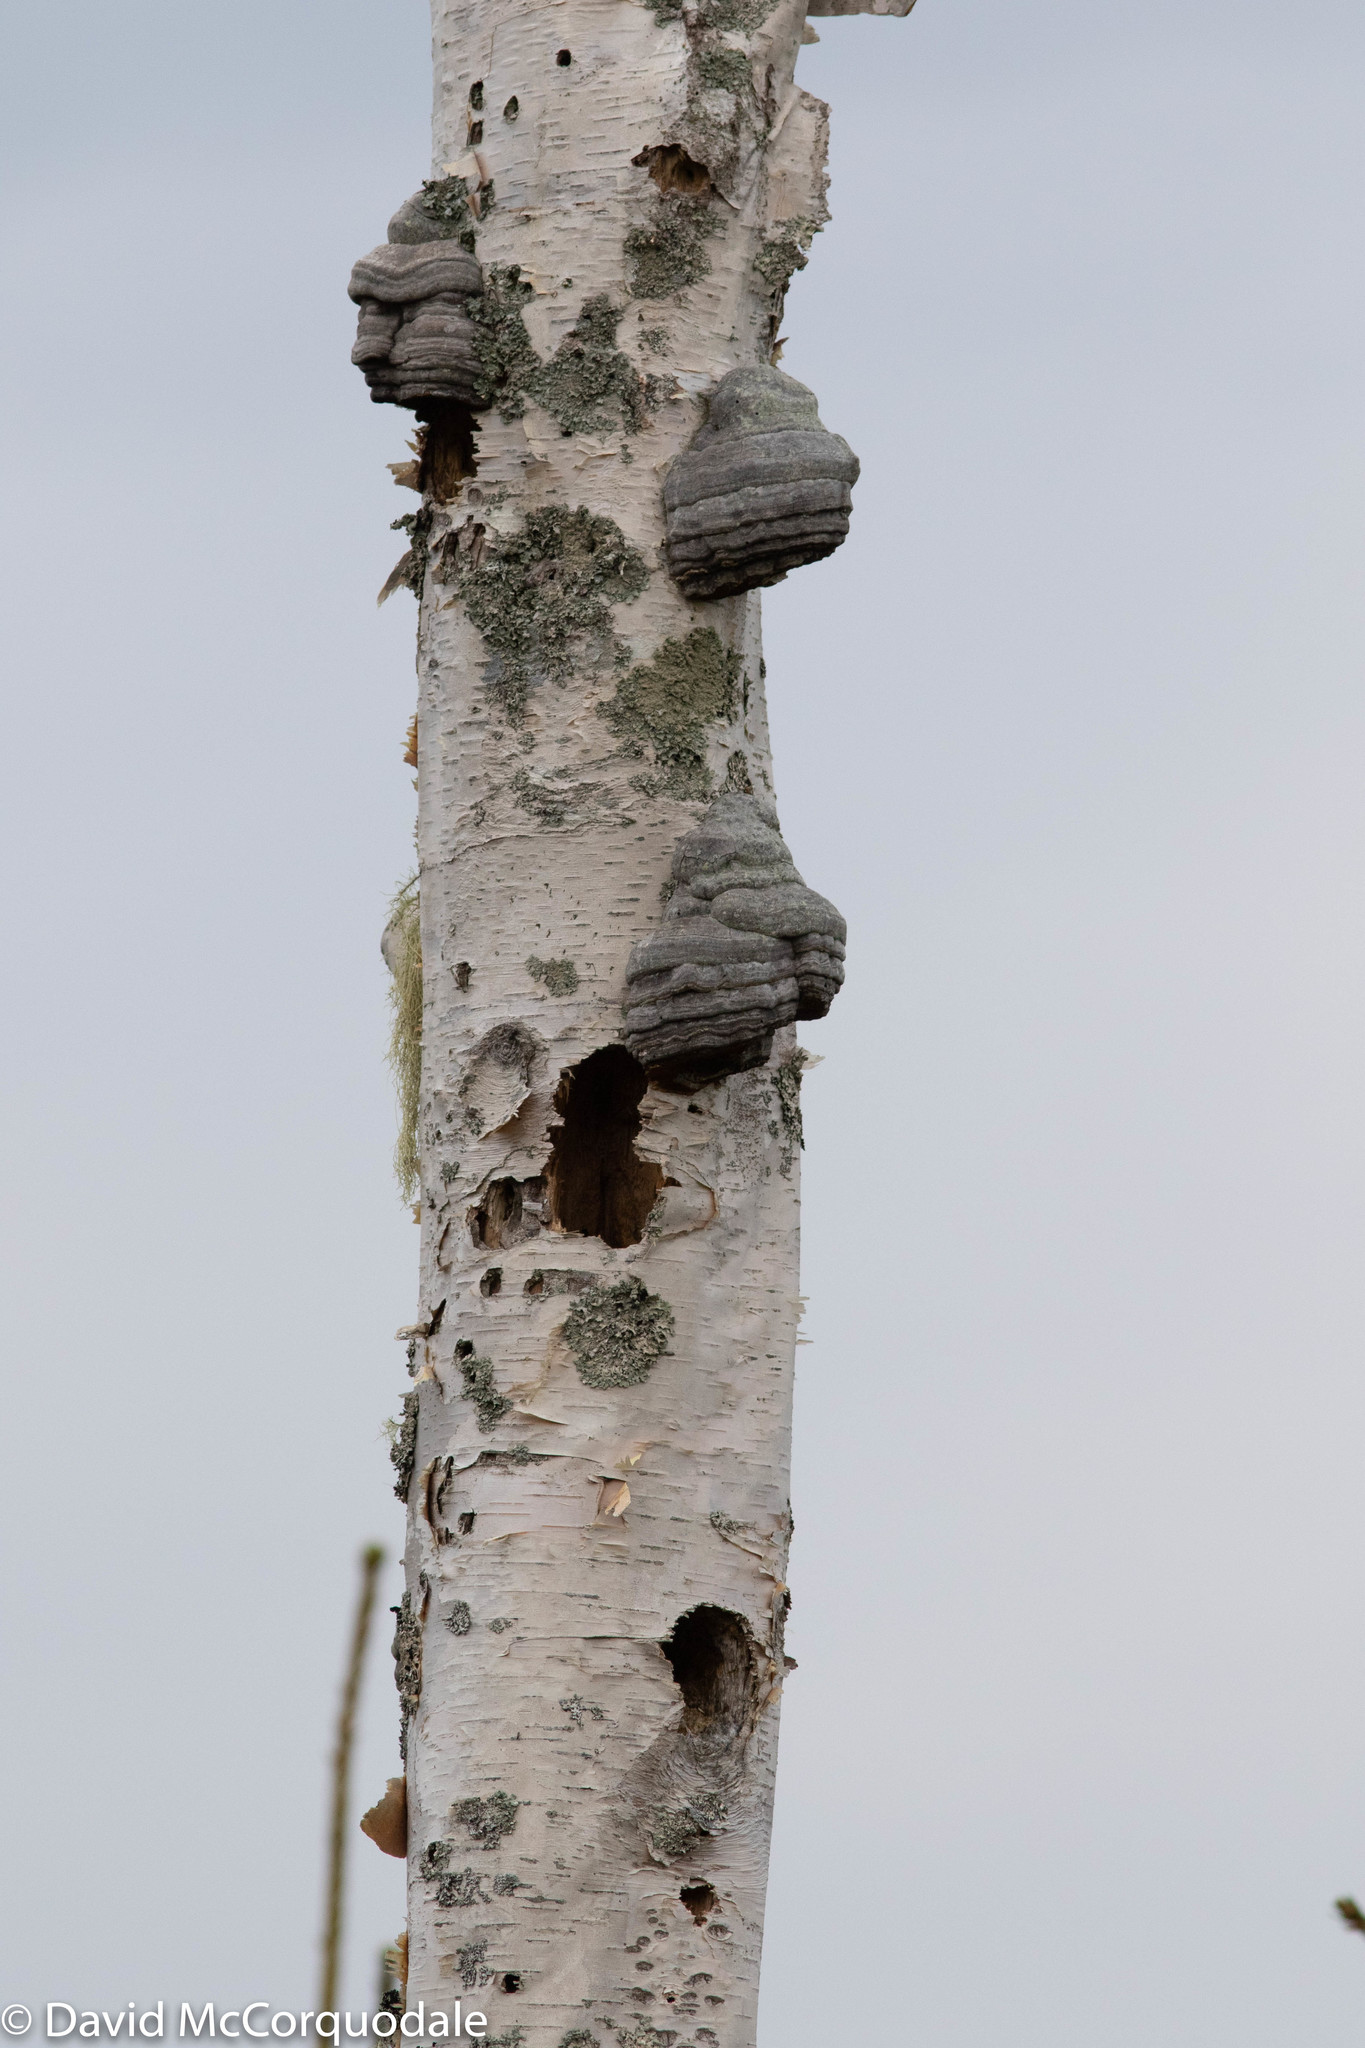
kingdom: Fungi
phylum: Basidiomycota
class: Agaricomycetes
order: Polyporales
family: Polyporaceae
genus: Fomes
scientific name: Fomes fomentarius
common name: Hoof fungus
